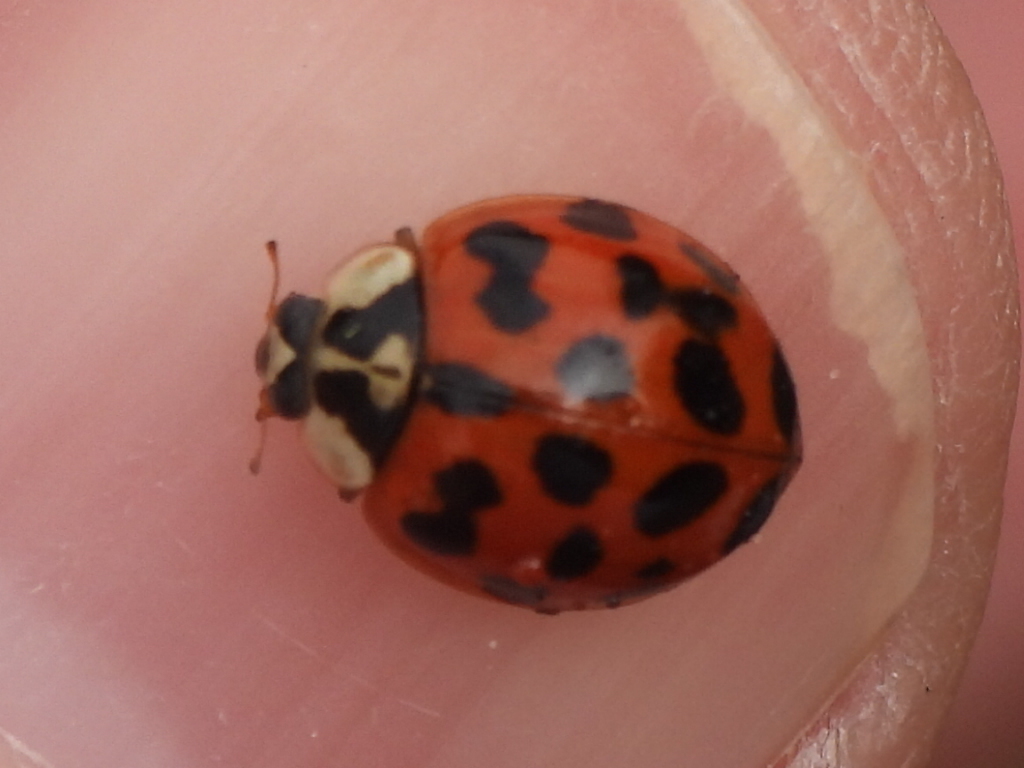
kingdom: Animalia
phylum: Arthropoda
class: Insecta
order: Coleoptera
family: Coccinellidae
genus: Harmonia
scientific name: Harmonia axyridis
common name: Harlequin ladybird
